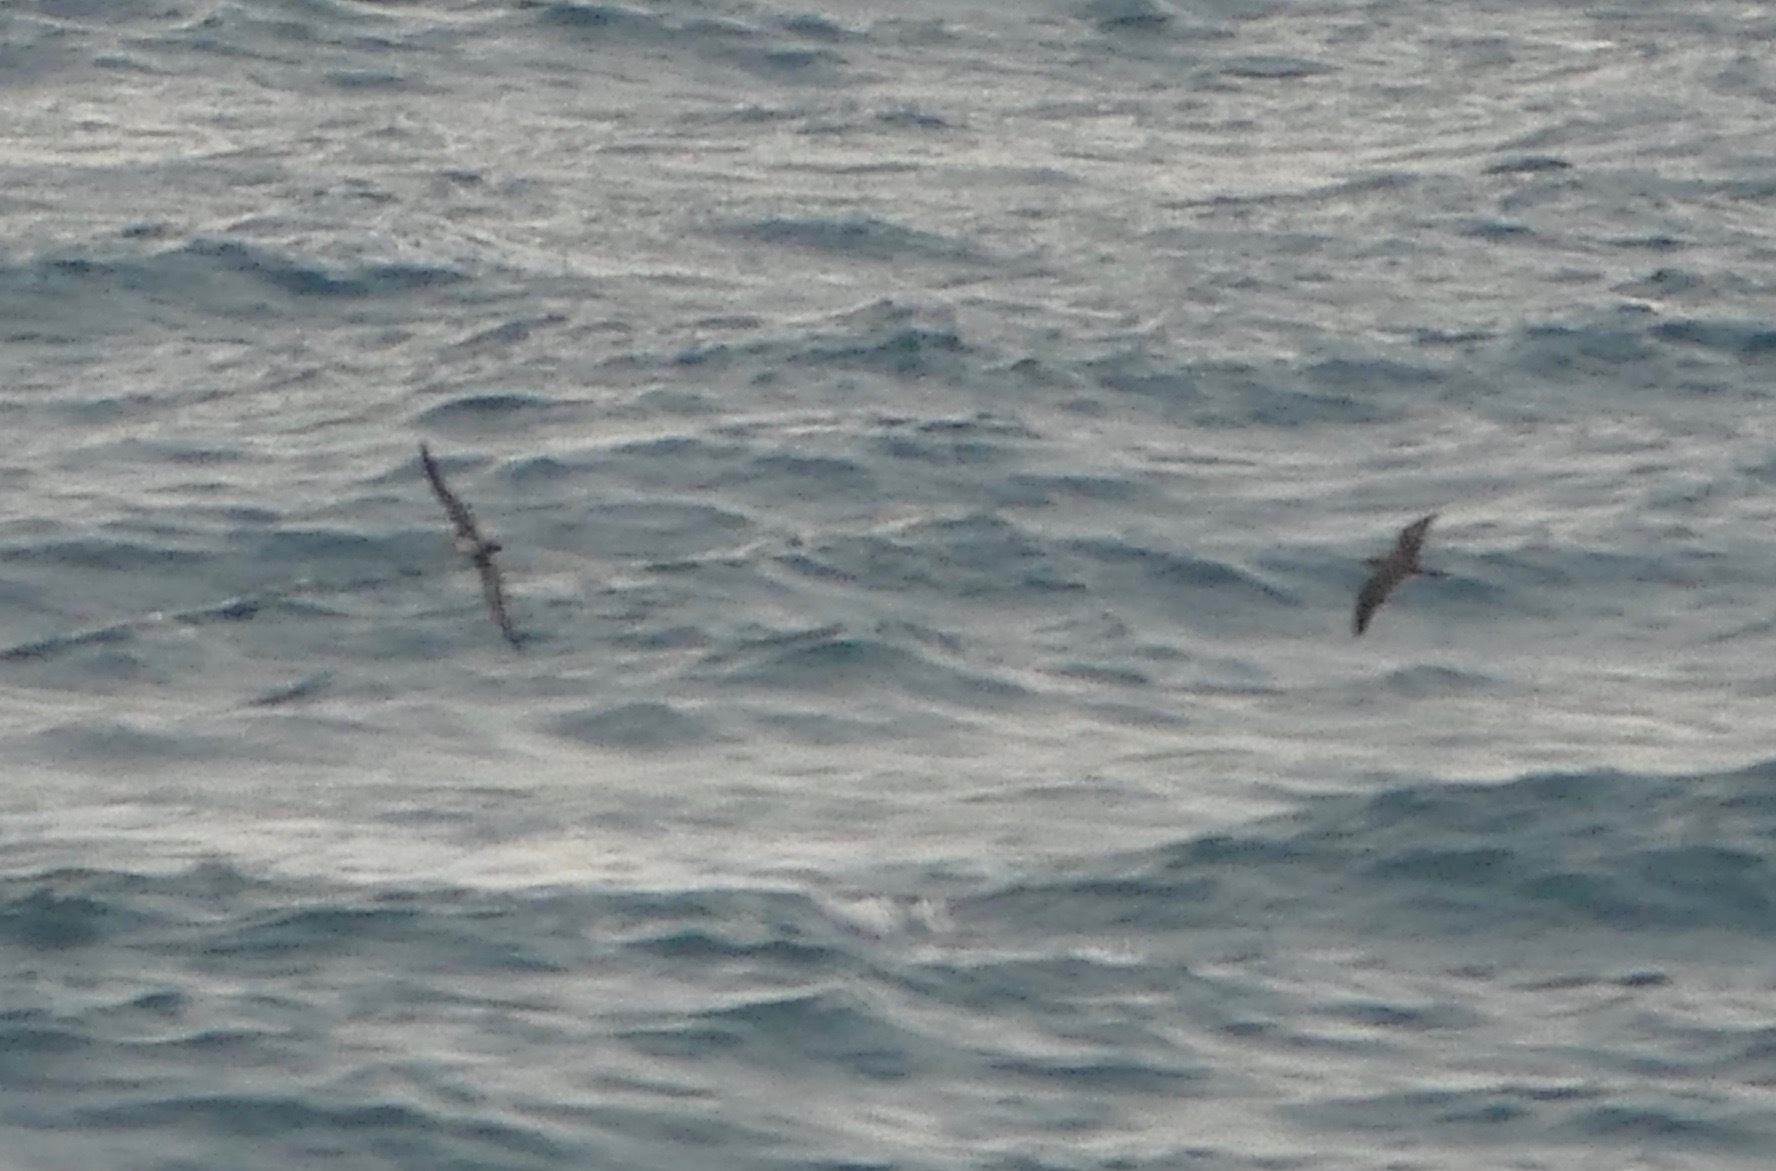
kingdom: Animalia
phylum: Chordata
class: Aves
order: Procellariiformes
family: Procellariidae
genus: Puffinus
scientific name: Puffinus pacificus
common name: Wedge-tailed shearwater
